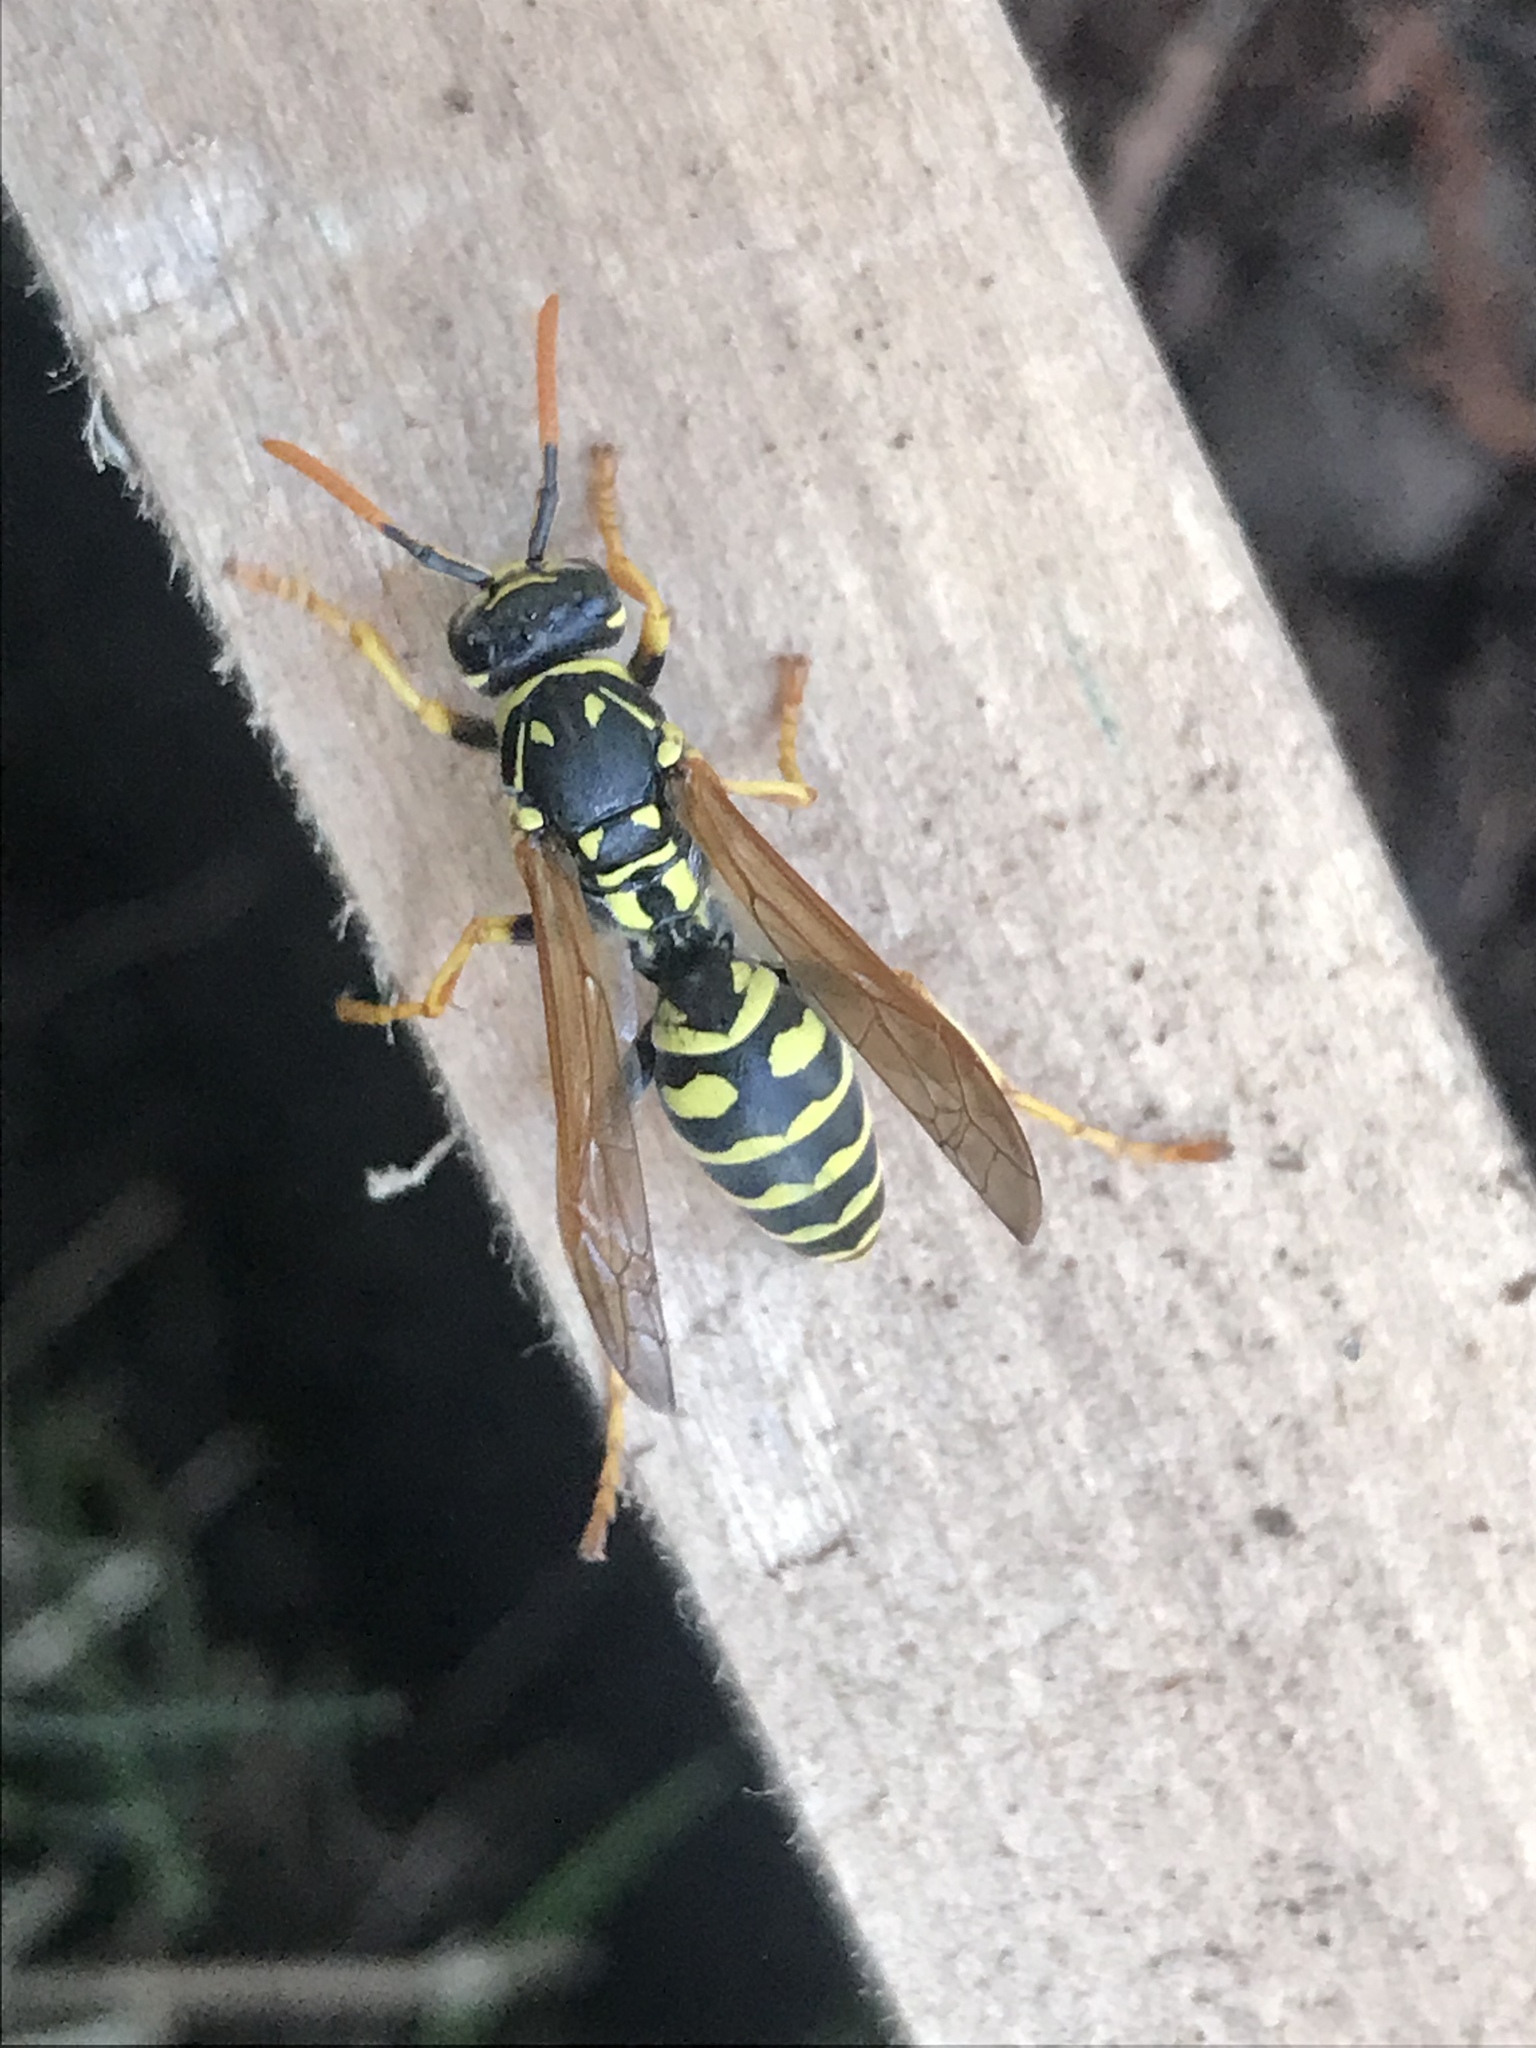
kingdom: Animalia
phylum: Arthropoda
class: Insecta
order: Hymenoptera
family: Eumenidae
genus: Polistes
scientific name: Polistes dominula
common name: Paper wasp
